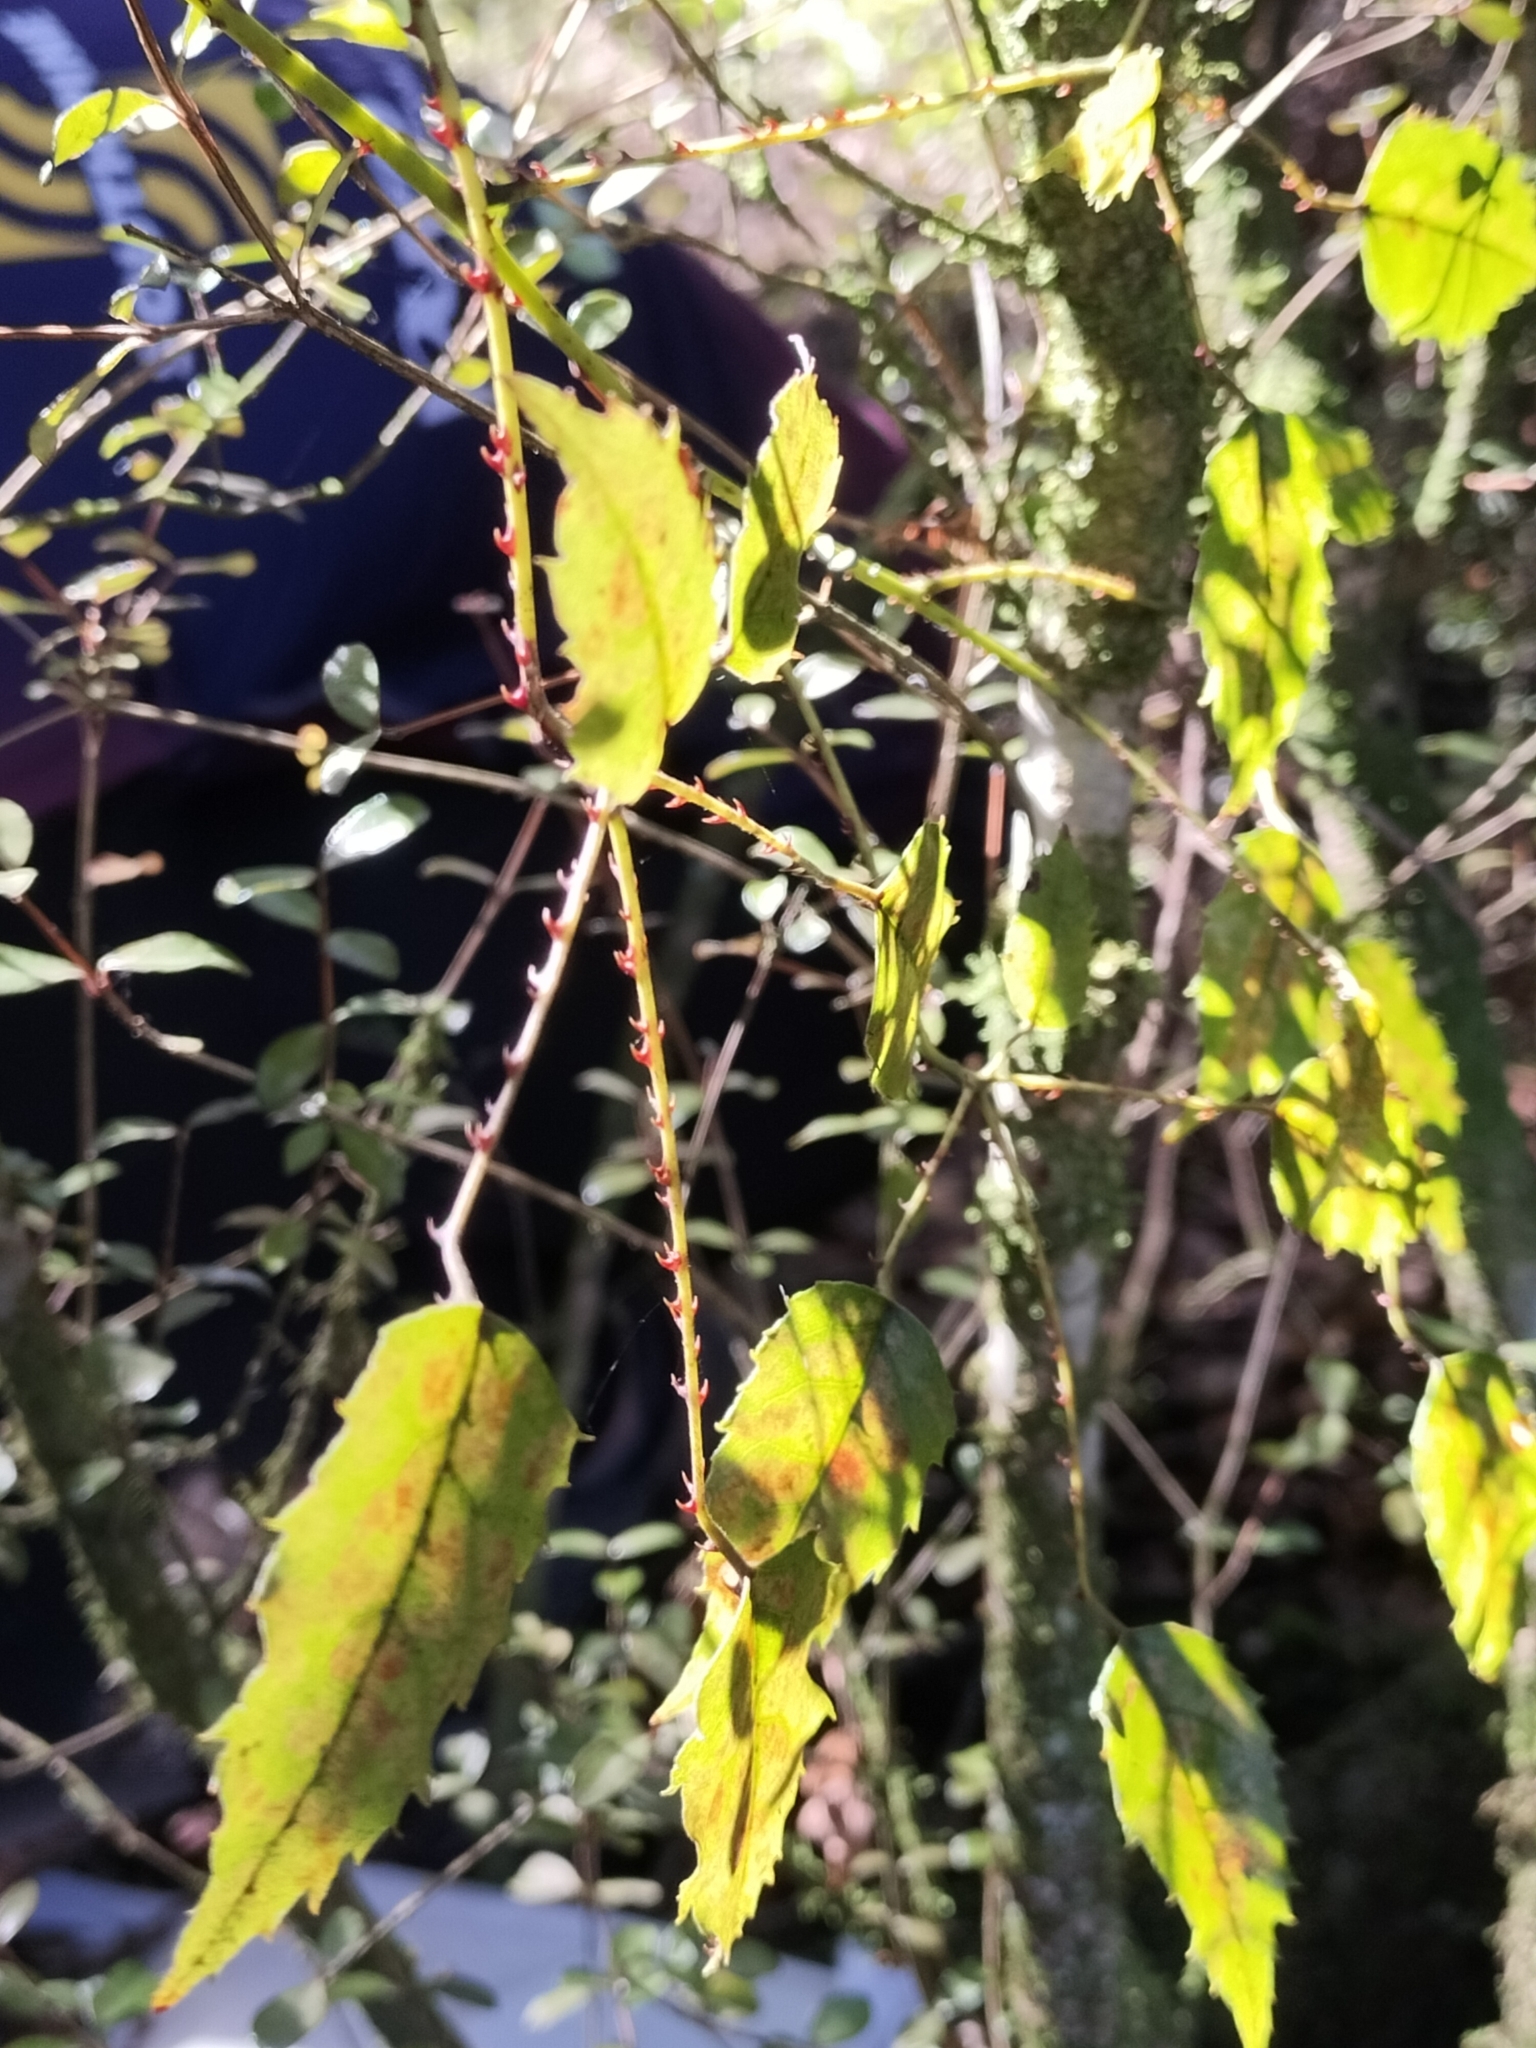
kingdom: Plantae
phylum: Tracheophyta
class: Magnoliopsida
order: Rosales
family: Rosaceae
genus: Rubus
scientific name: Rubus cissoides
